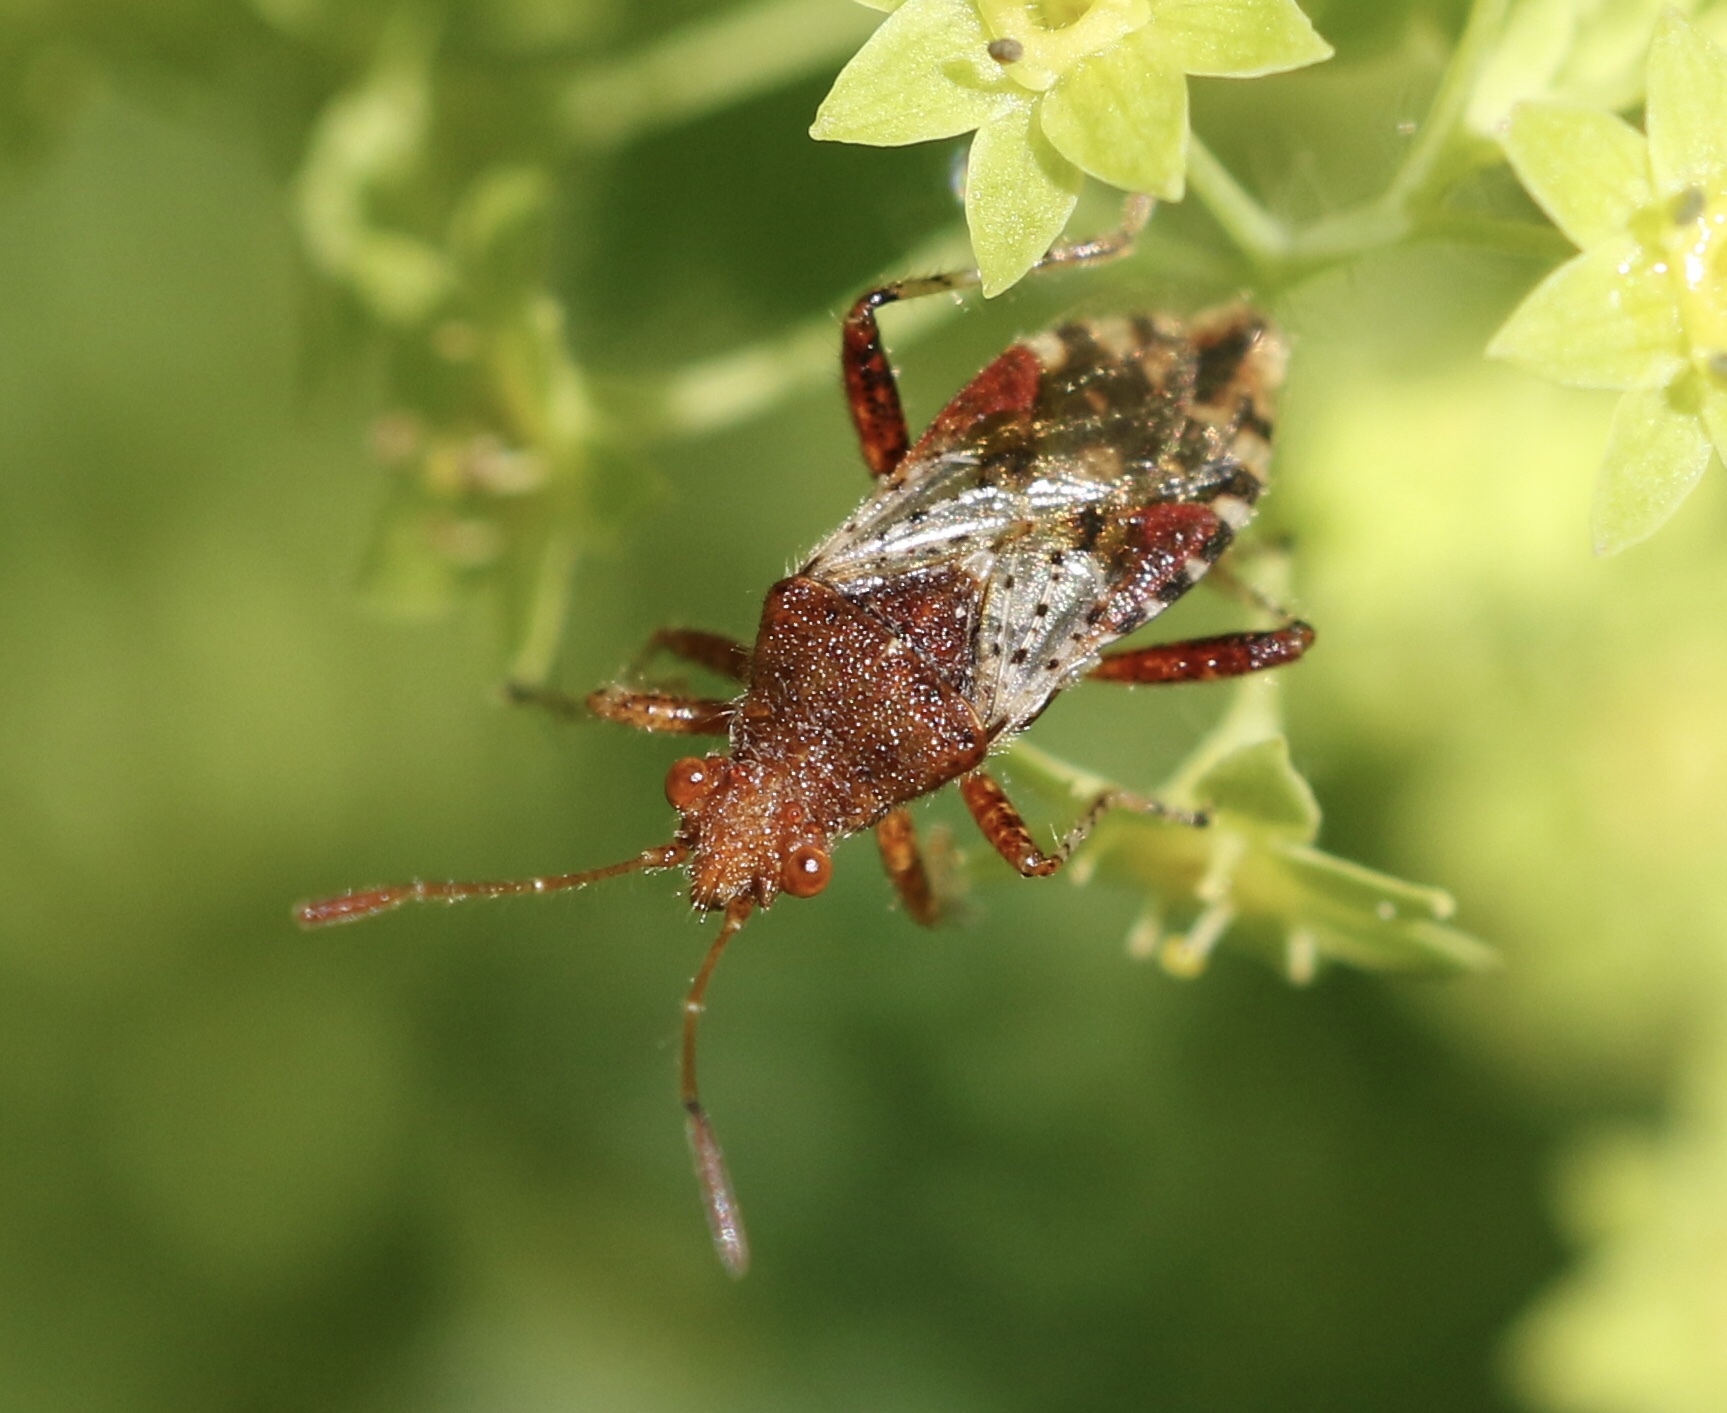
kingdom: Animalia
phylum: Arthropoda
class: Insecta
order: Hemiptera
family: Rhopalidae
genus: Rhopalus
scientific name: Rhopalus subrufus
